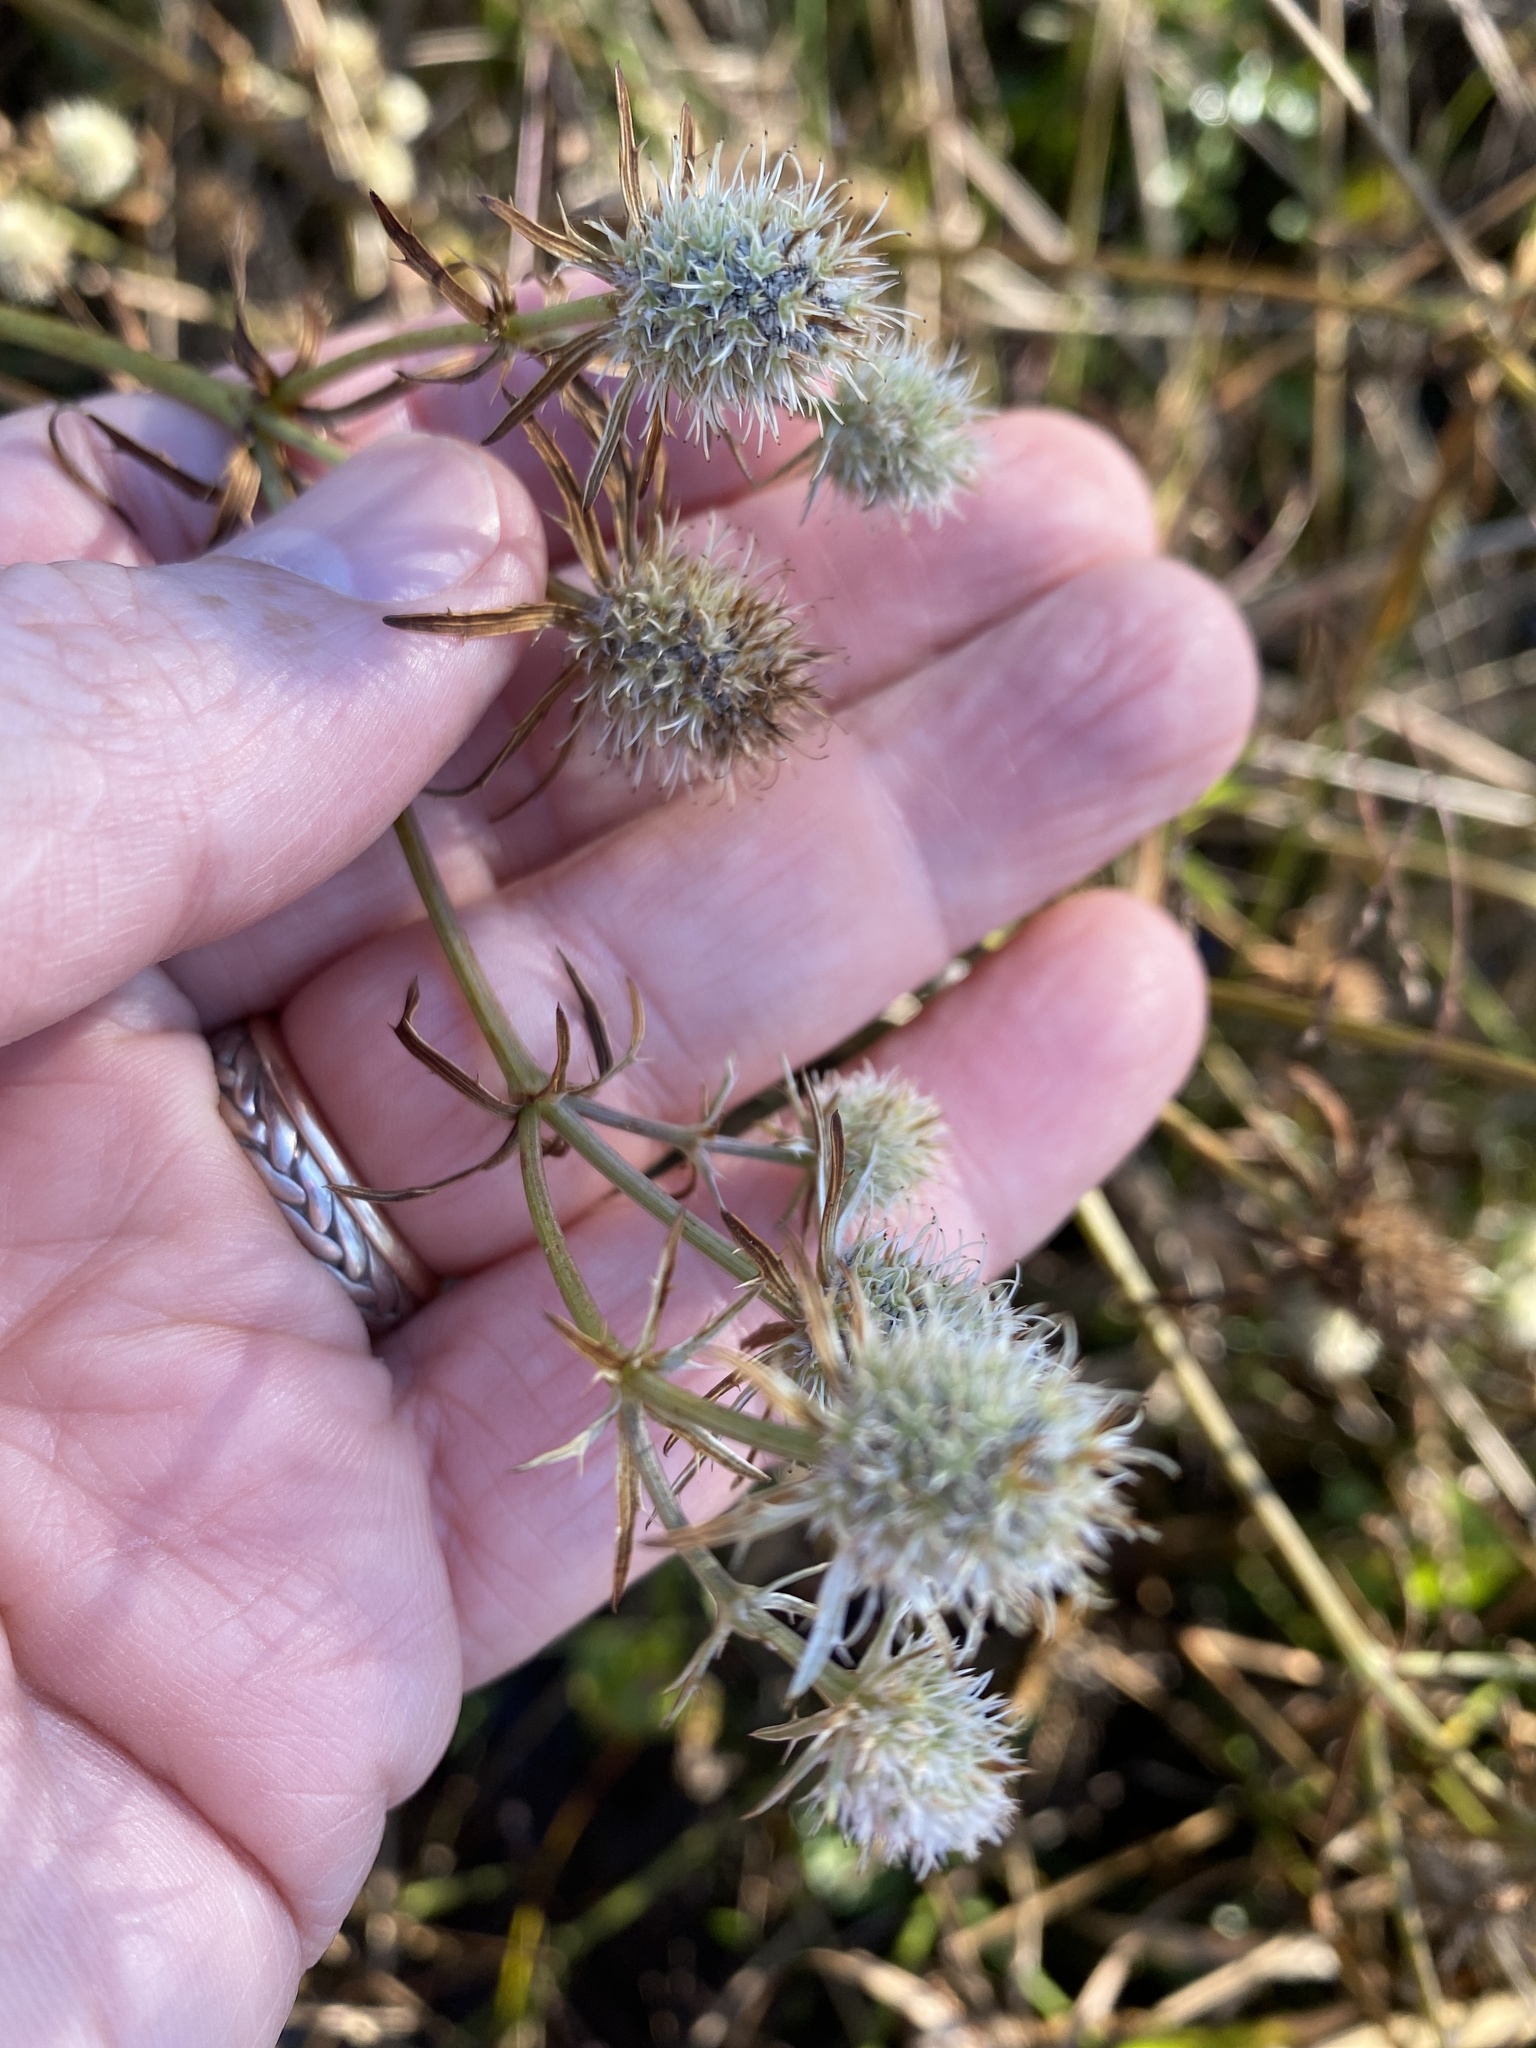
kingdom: Plantae
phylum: Tracheophyta
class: Magnoliopsida
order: Apiales
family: Apiaceae
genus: Eryngium
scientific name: Eryngium aquaticum
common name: Water eryngo
